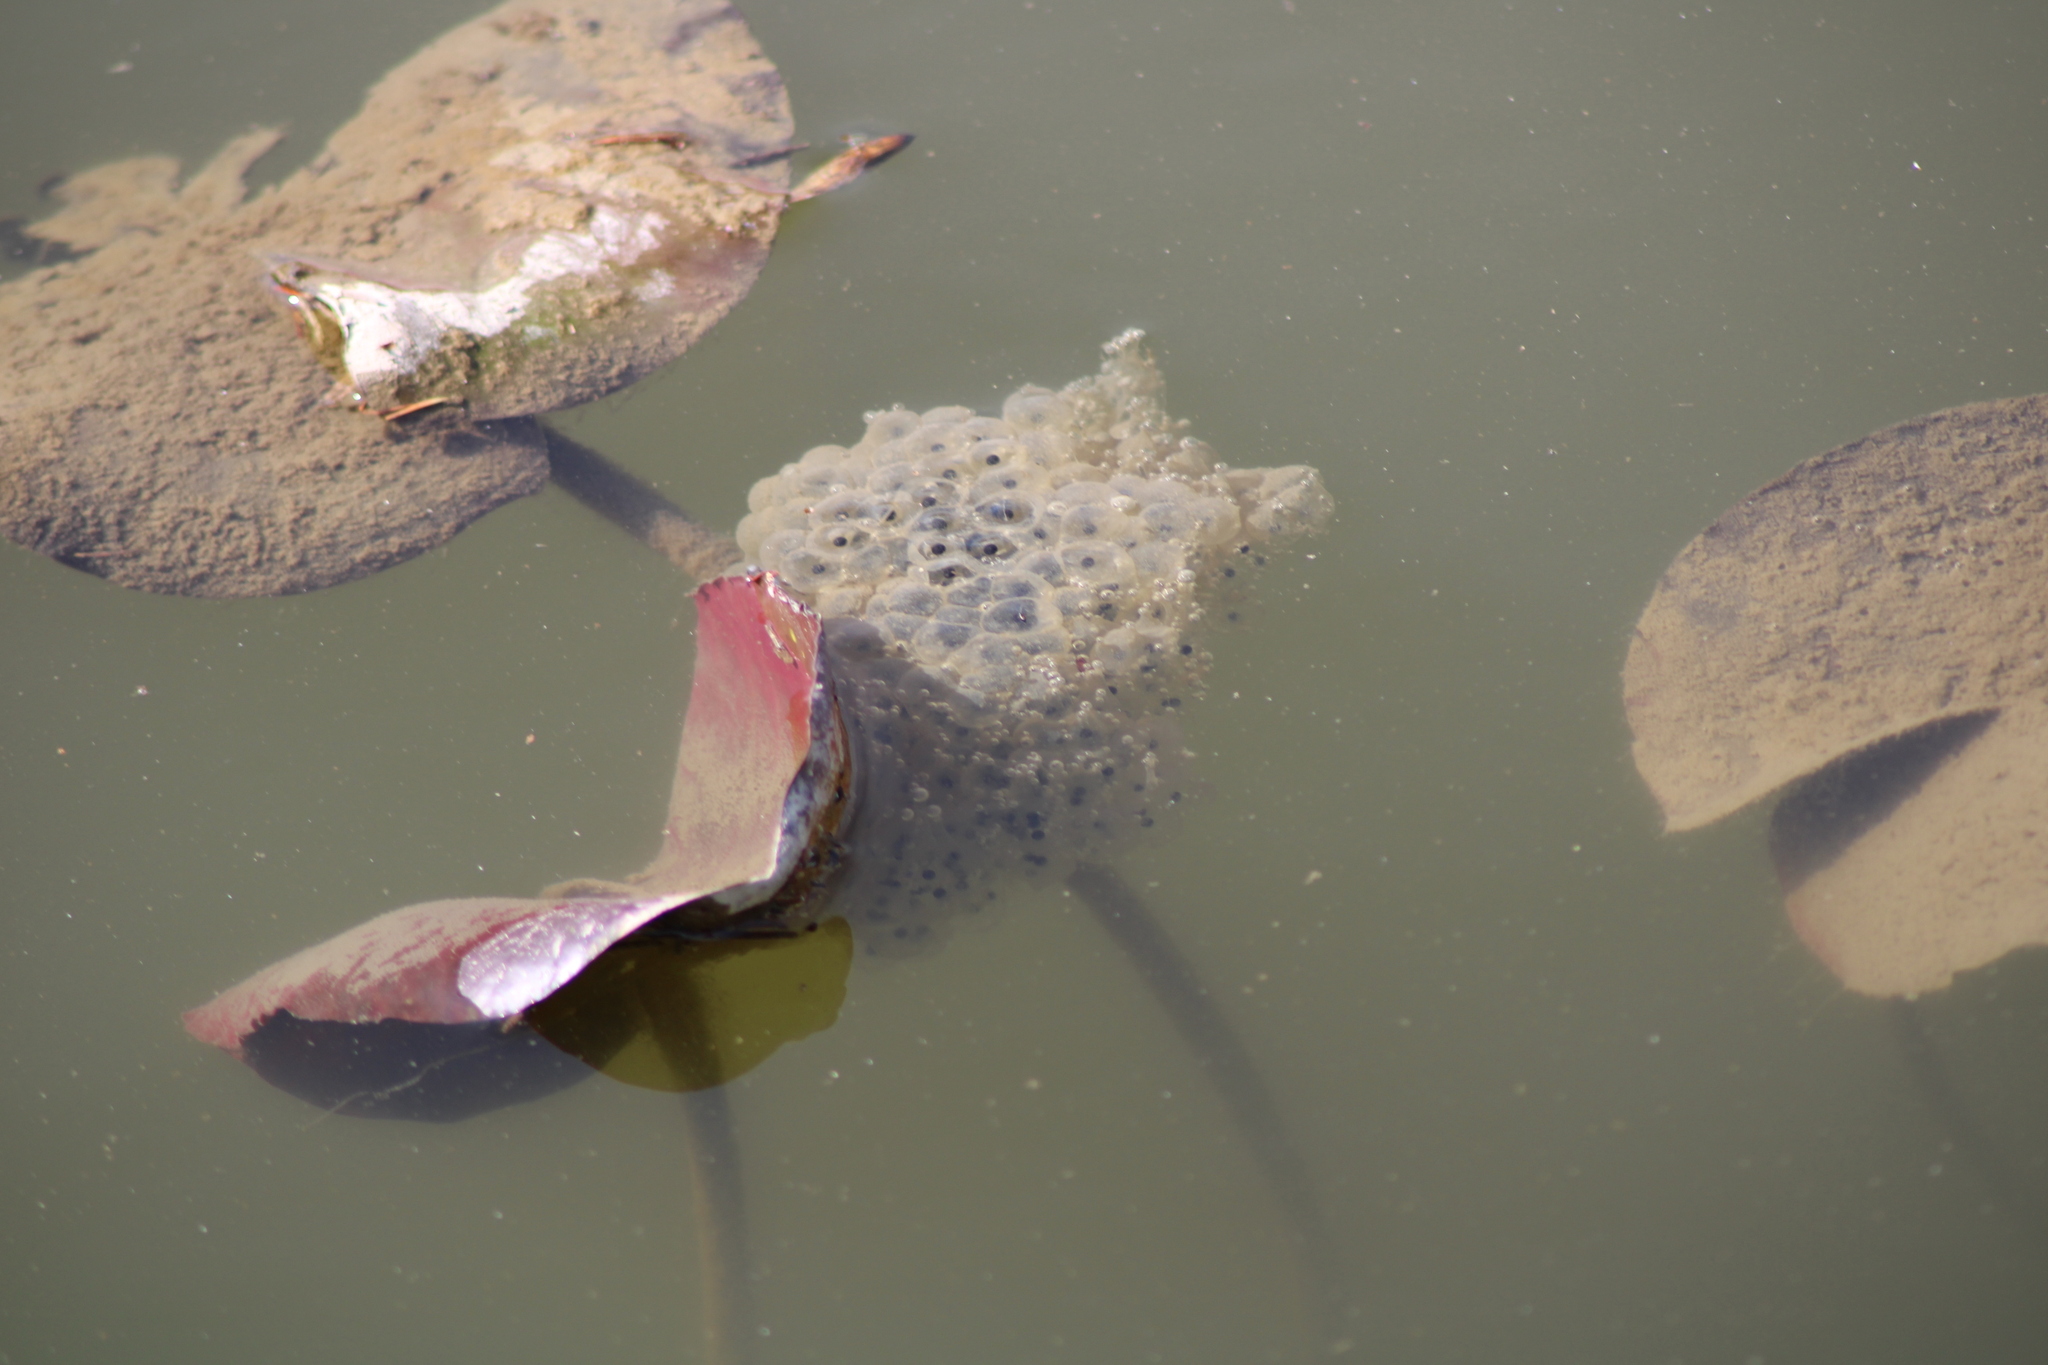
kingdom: Animalia
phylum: Chordata
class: Amphibia
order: Anura
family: Ranidae
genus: Rana
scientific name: Rana dalmatina
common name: Agile frog
